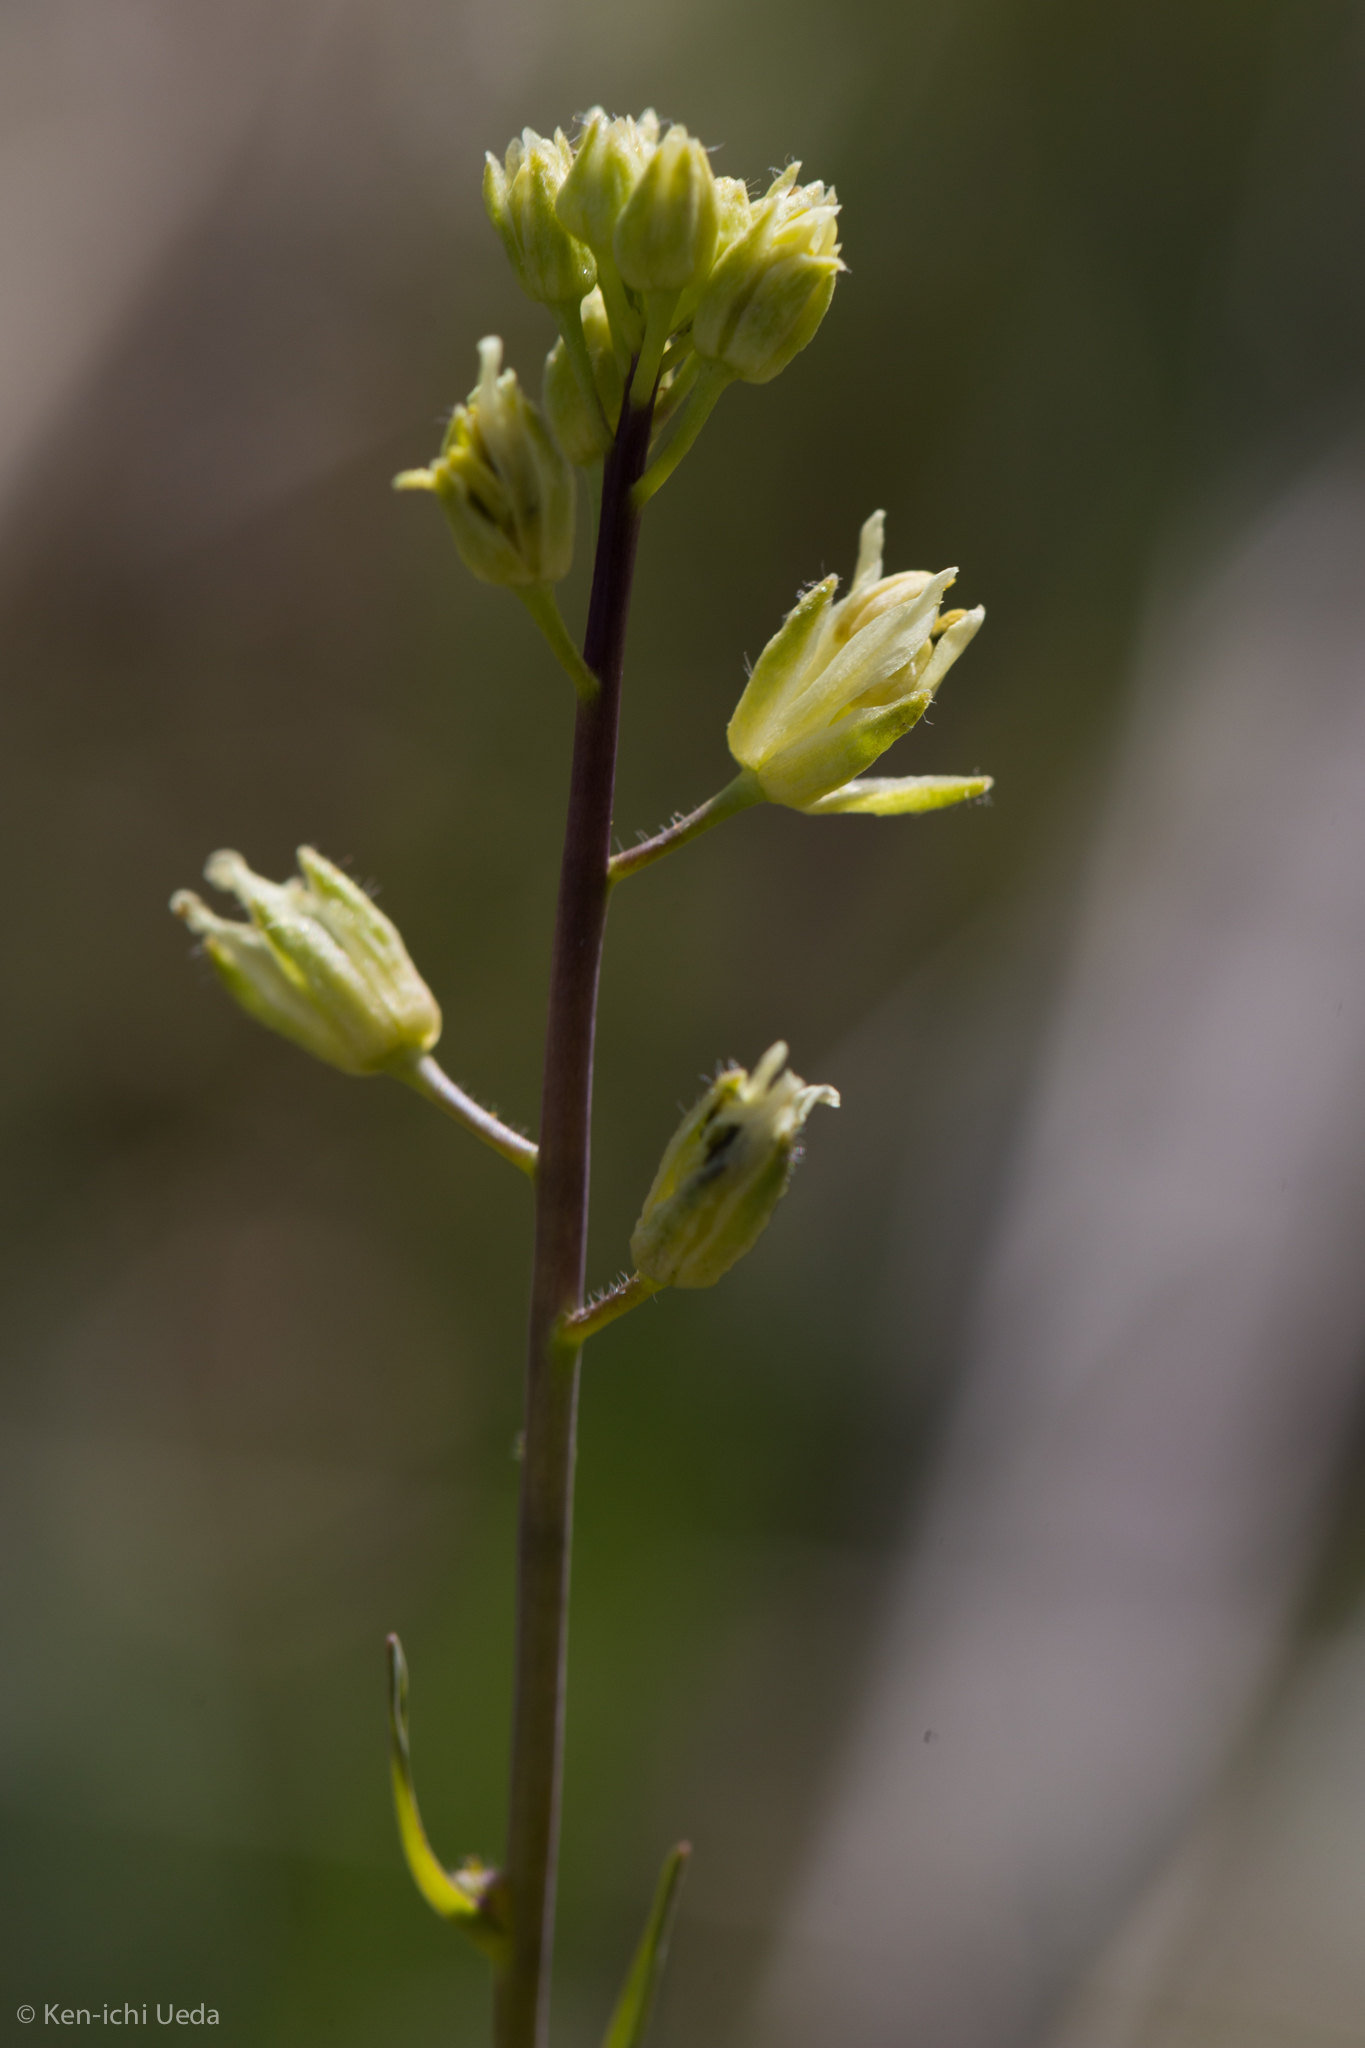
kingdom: Plantae
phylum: Tracheophyta
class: Magnoliopsida
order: Brassicales
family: Brassicaceae
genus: Streptanthus
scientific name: Streptanthus flavescens
